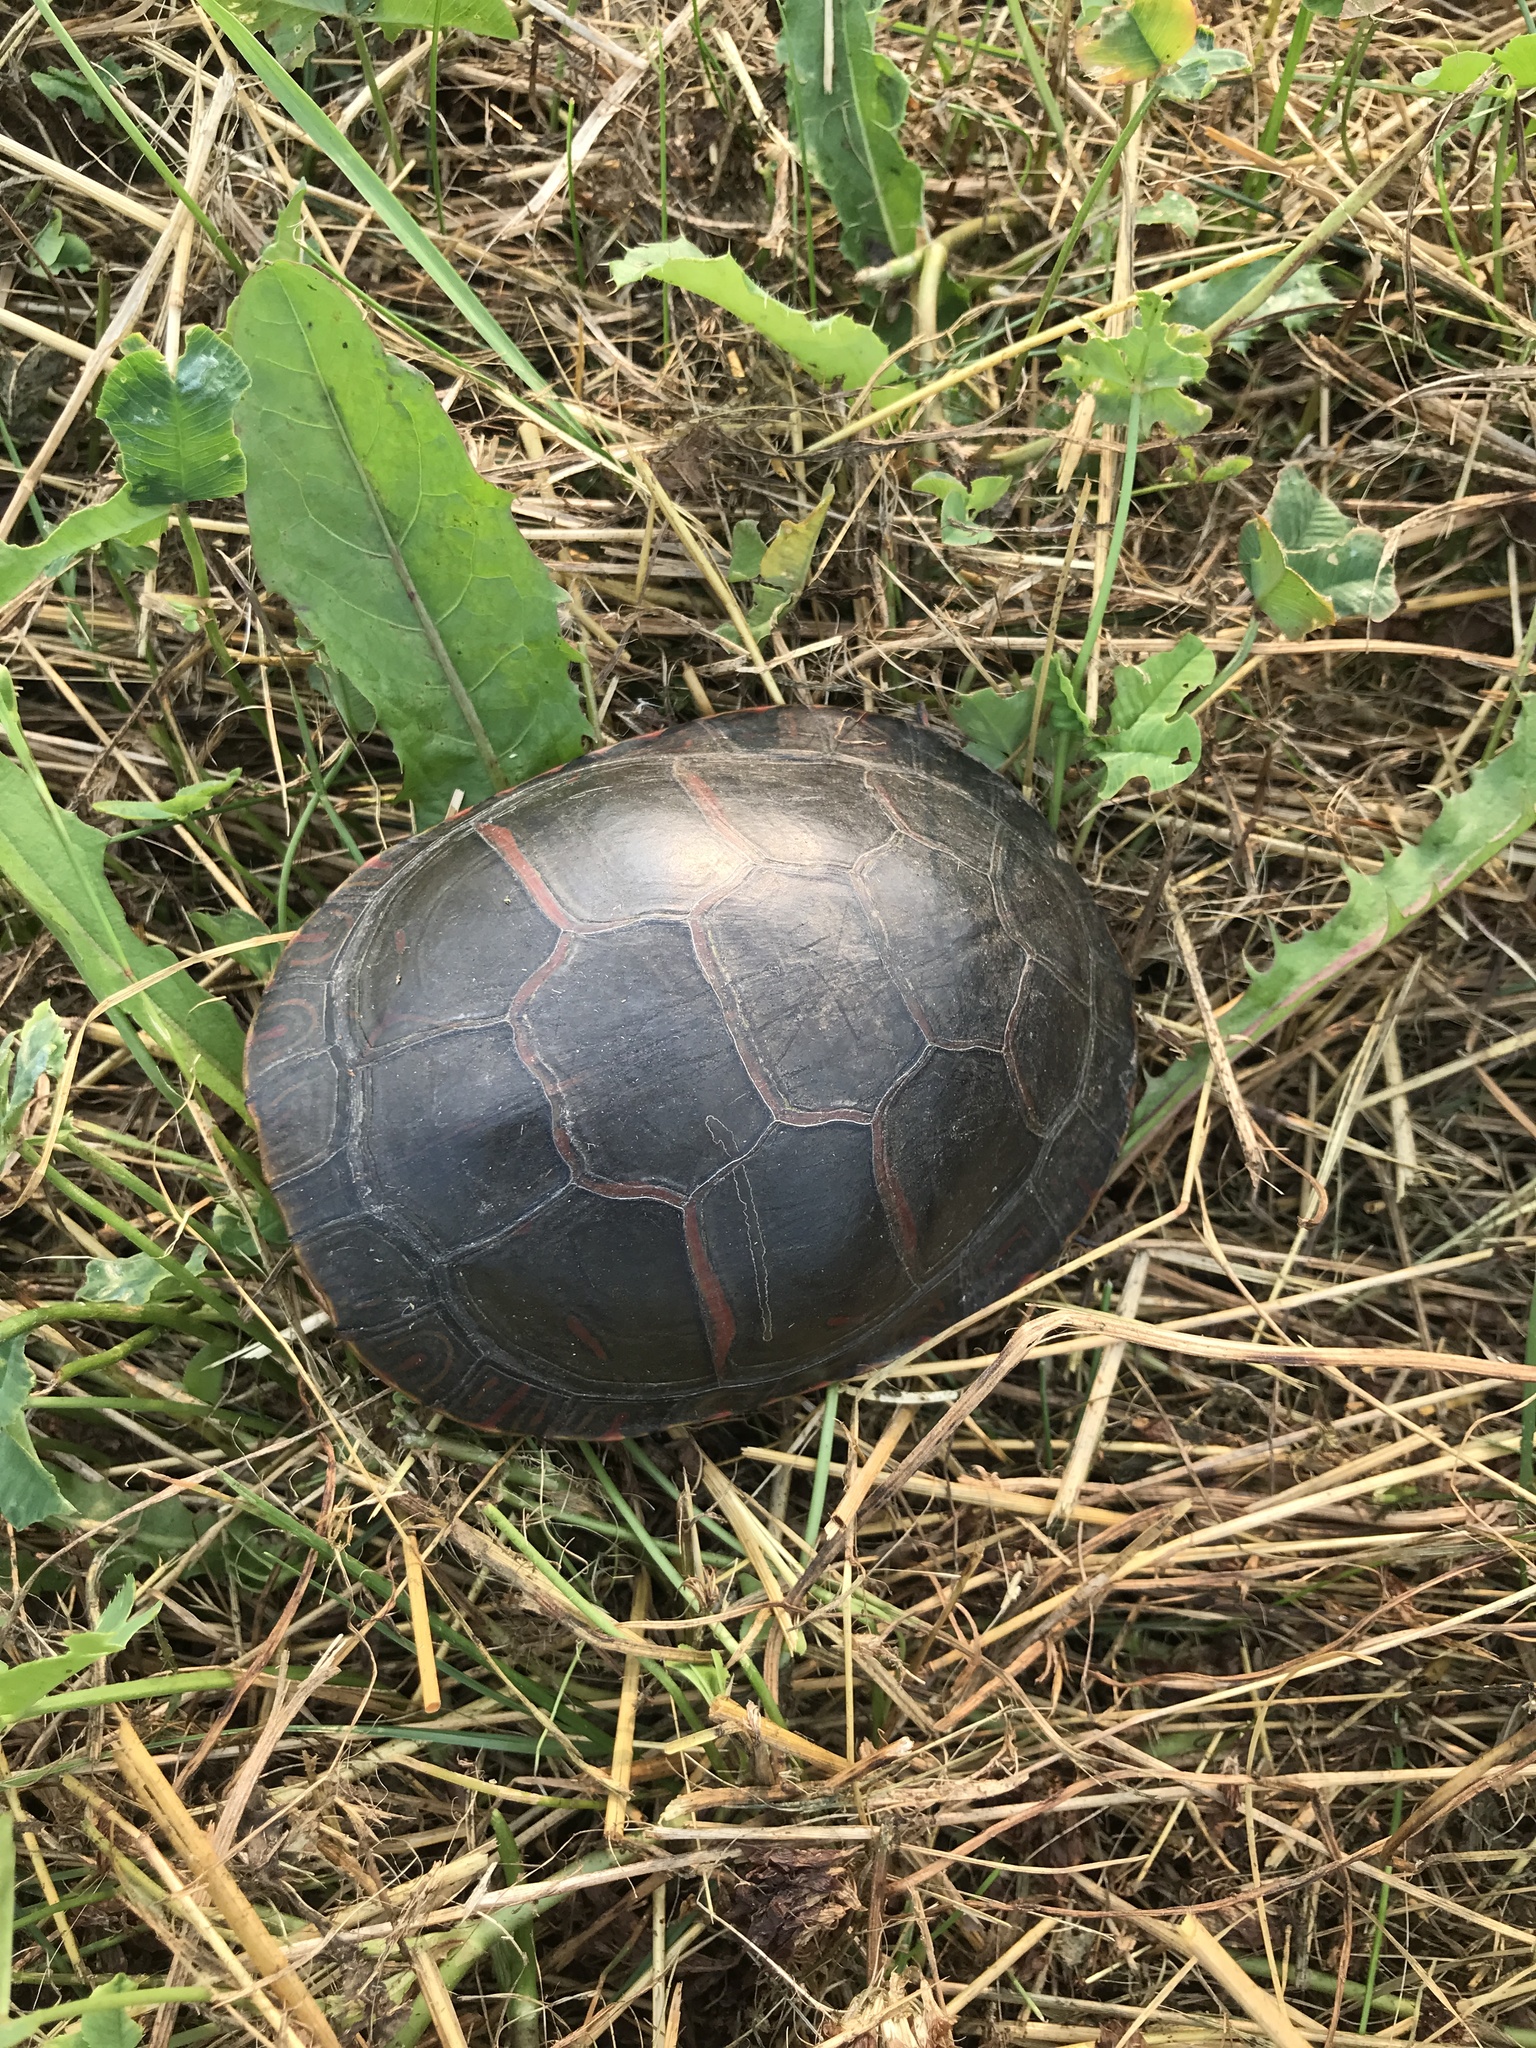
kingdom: Animalia
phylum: Chordata
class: Testudines
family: Emydidae
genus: Chrysemys
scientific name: Chrysemys picta
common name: Painted turtle
